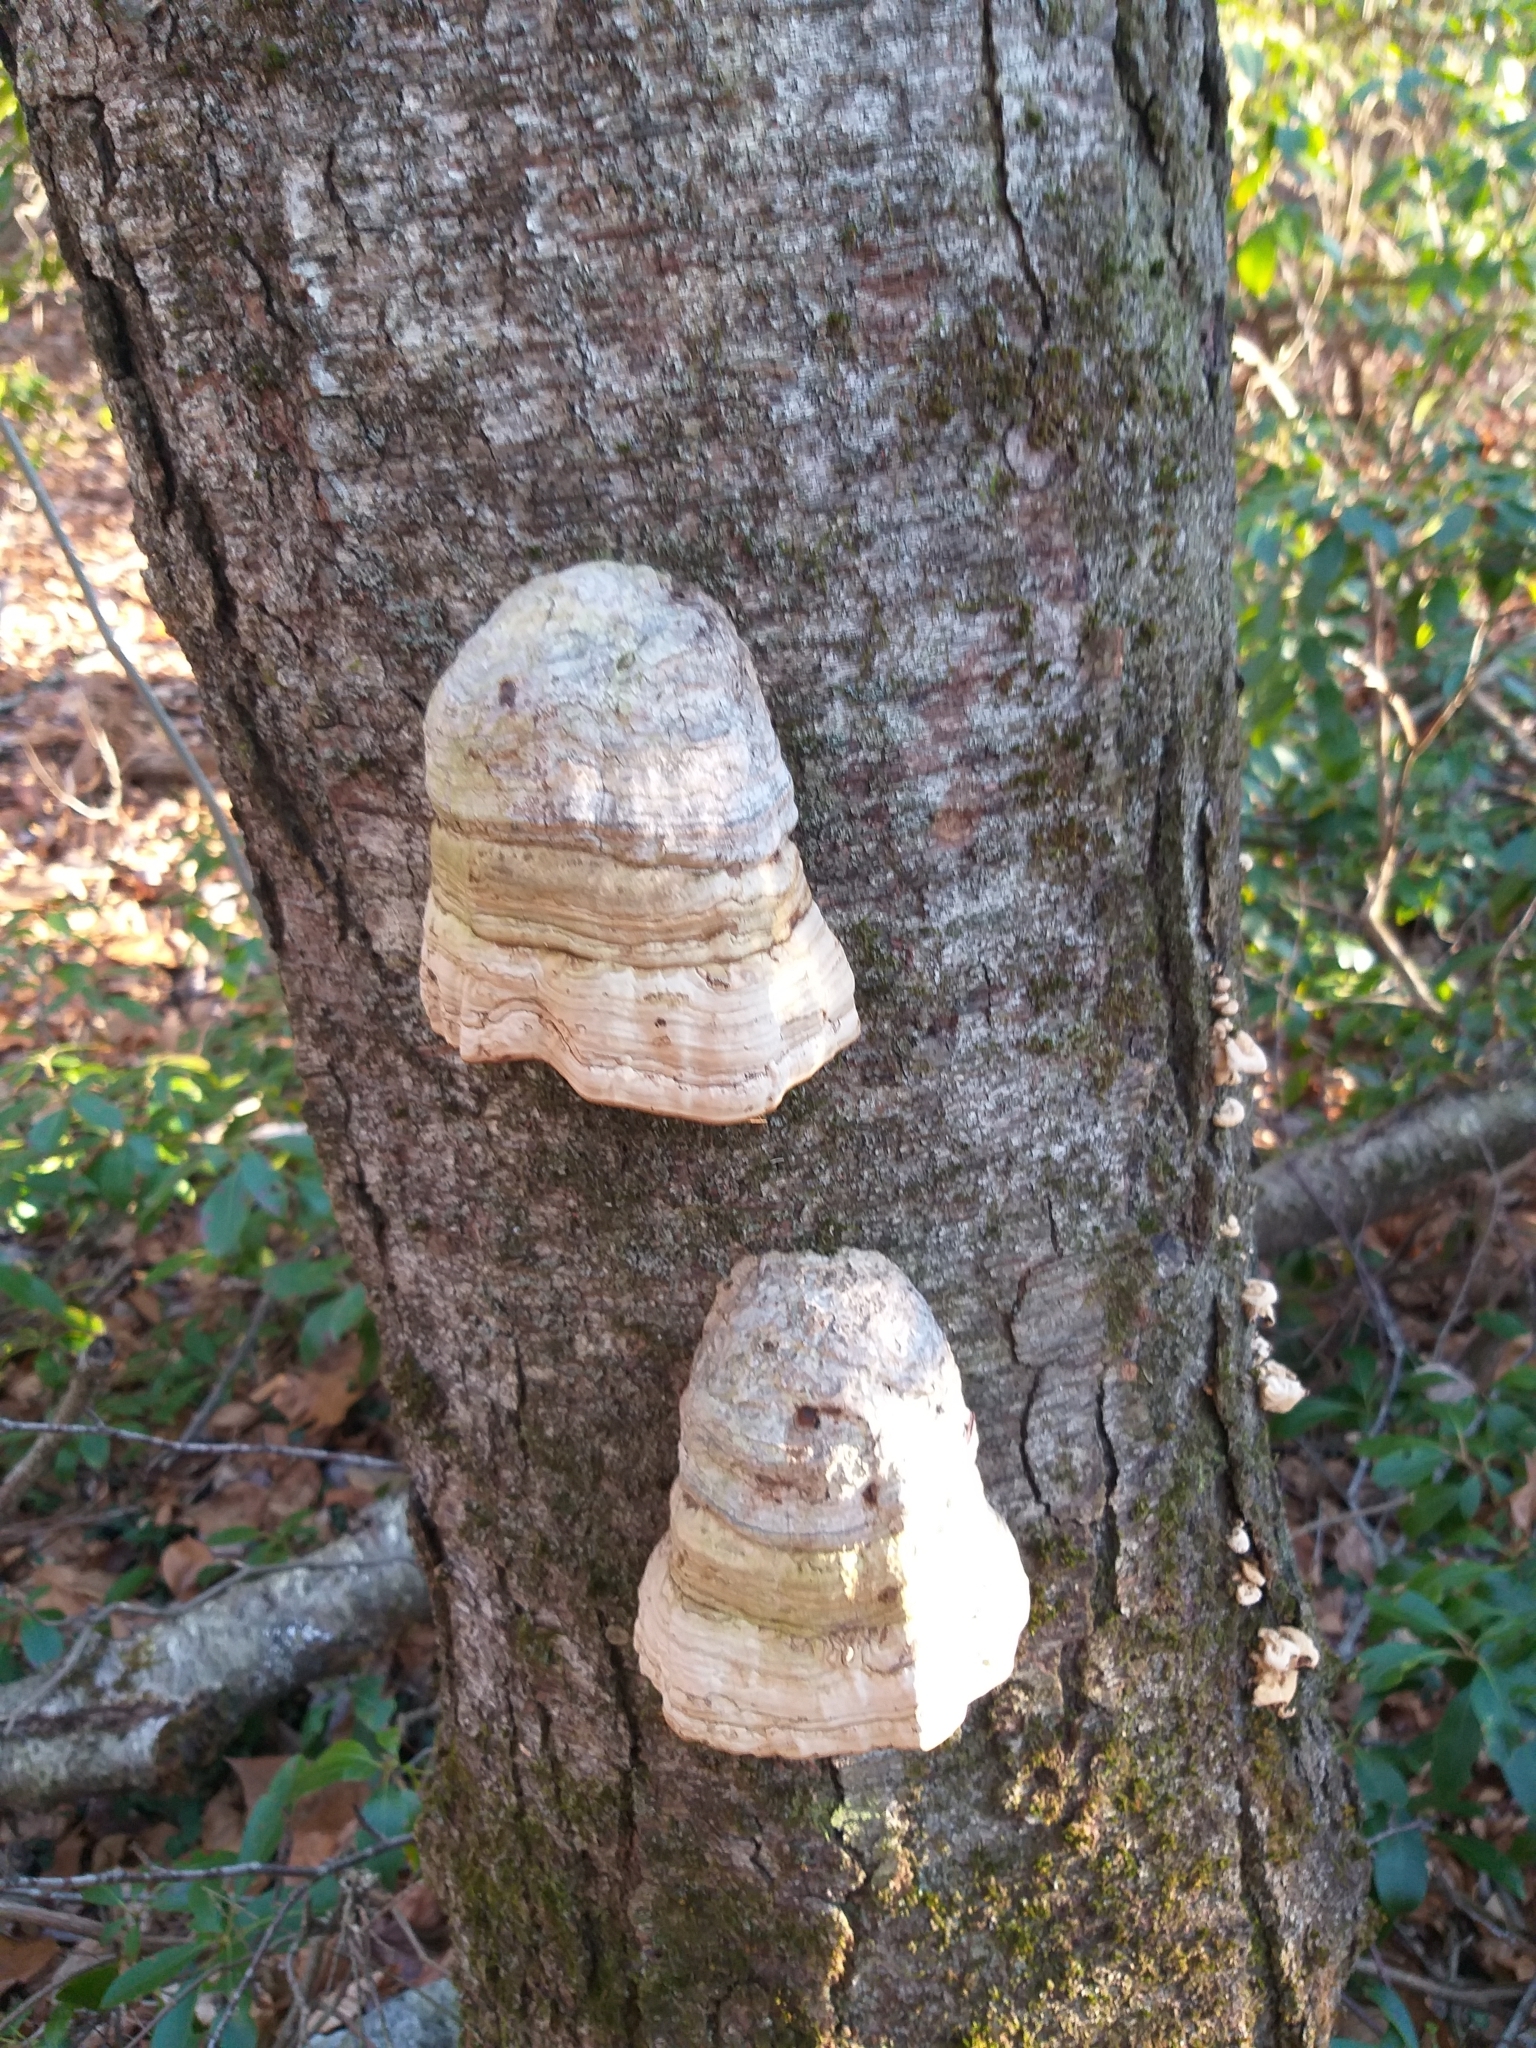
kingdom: Fungi
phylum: Basidiomycota
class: Agaricomycetes
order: Polyporales
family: Polyporaceae
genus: Fomes
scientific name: Fomes fomentarius
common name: Hoof fungus
